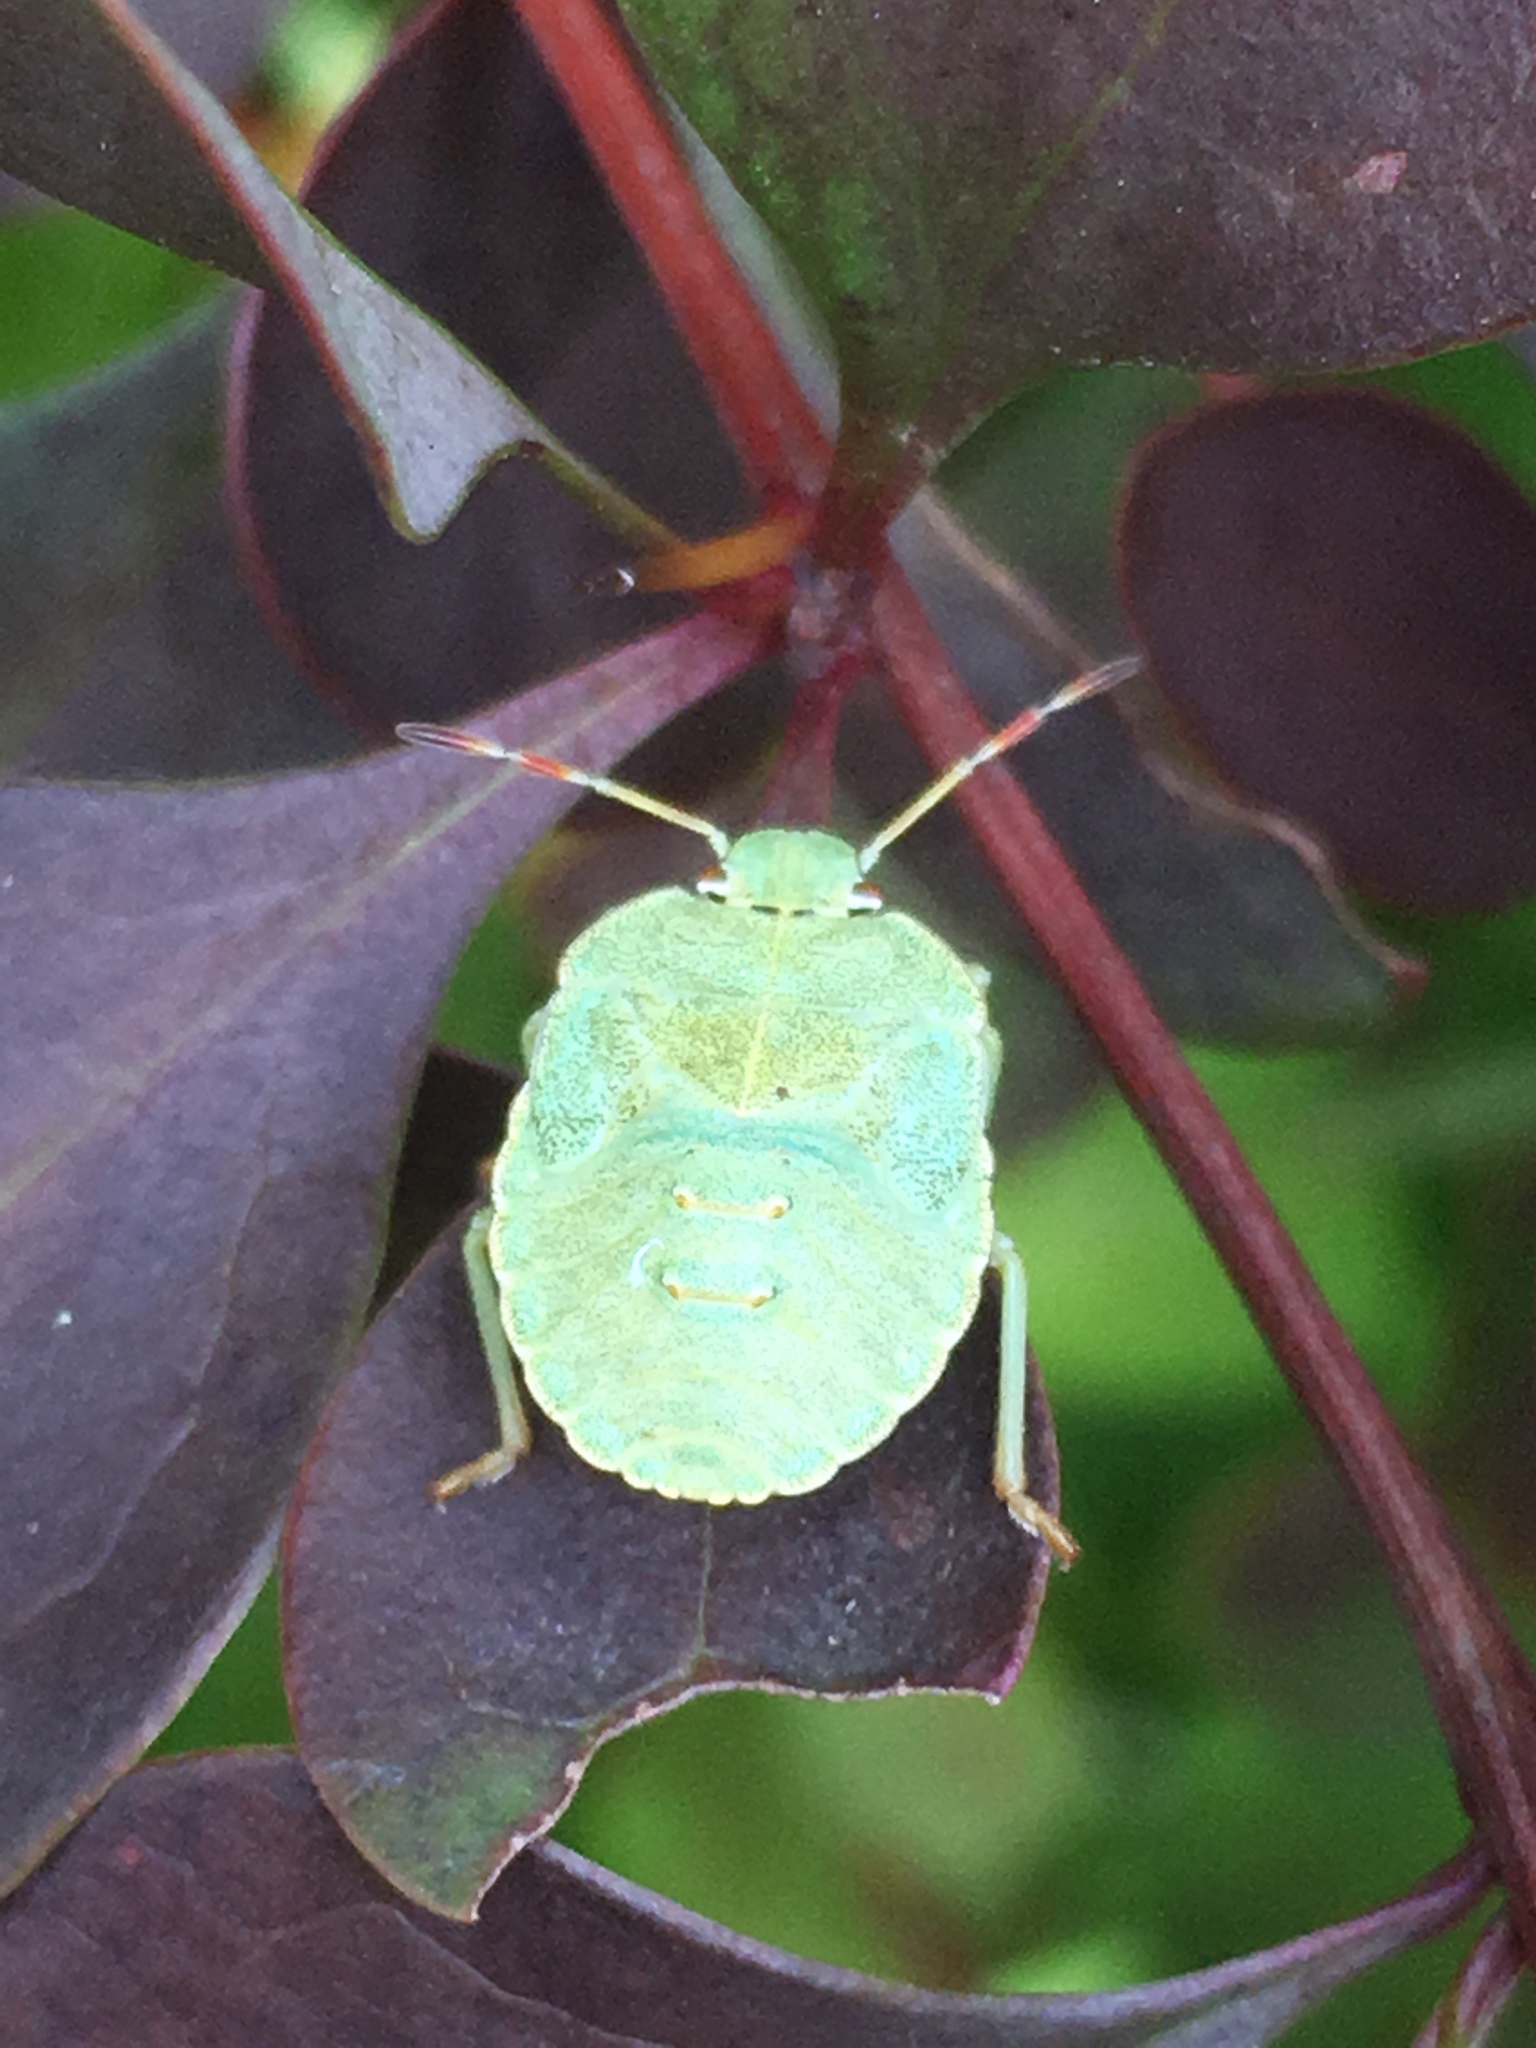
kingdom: Animalia
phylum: Arthropoda
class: Insecta
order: Hemiptera
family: Pentatomidae
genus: Palomena
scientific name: Palomena prasina
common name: Green shieldbug
